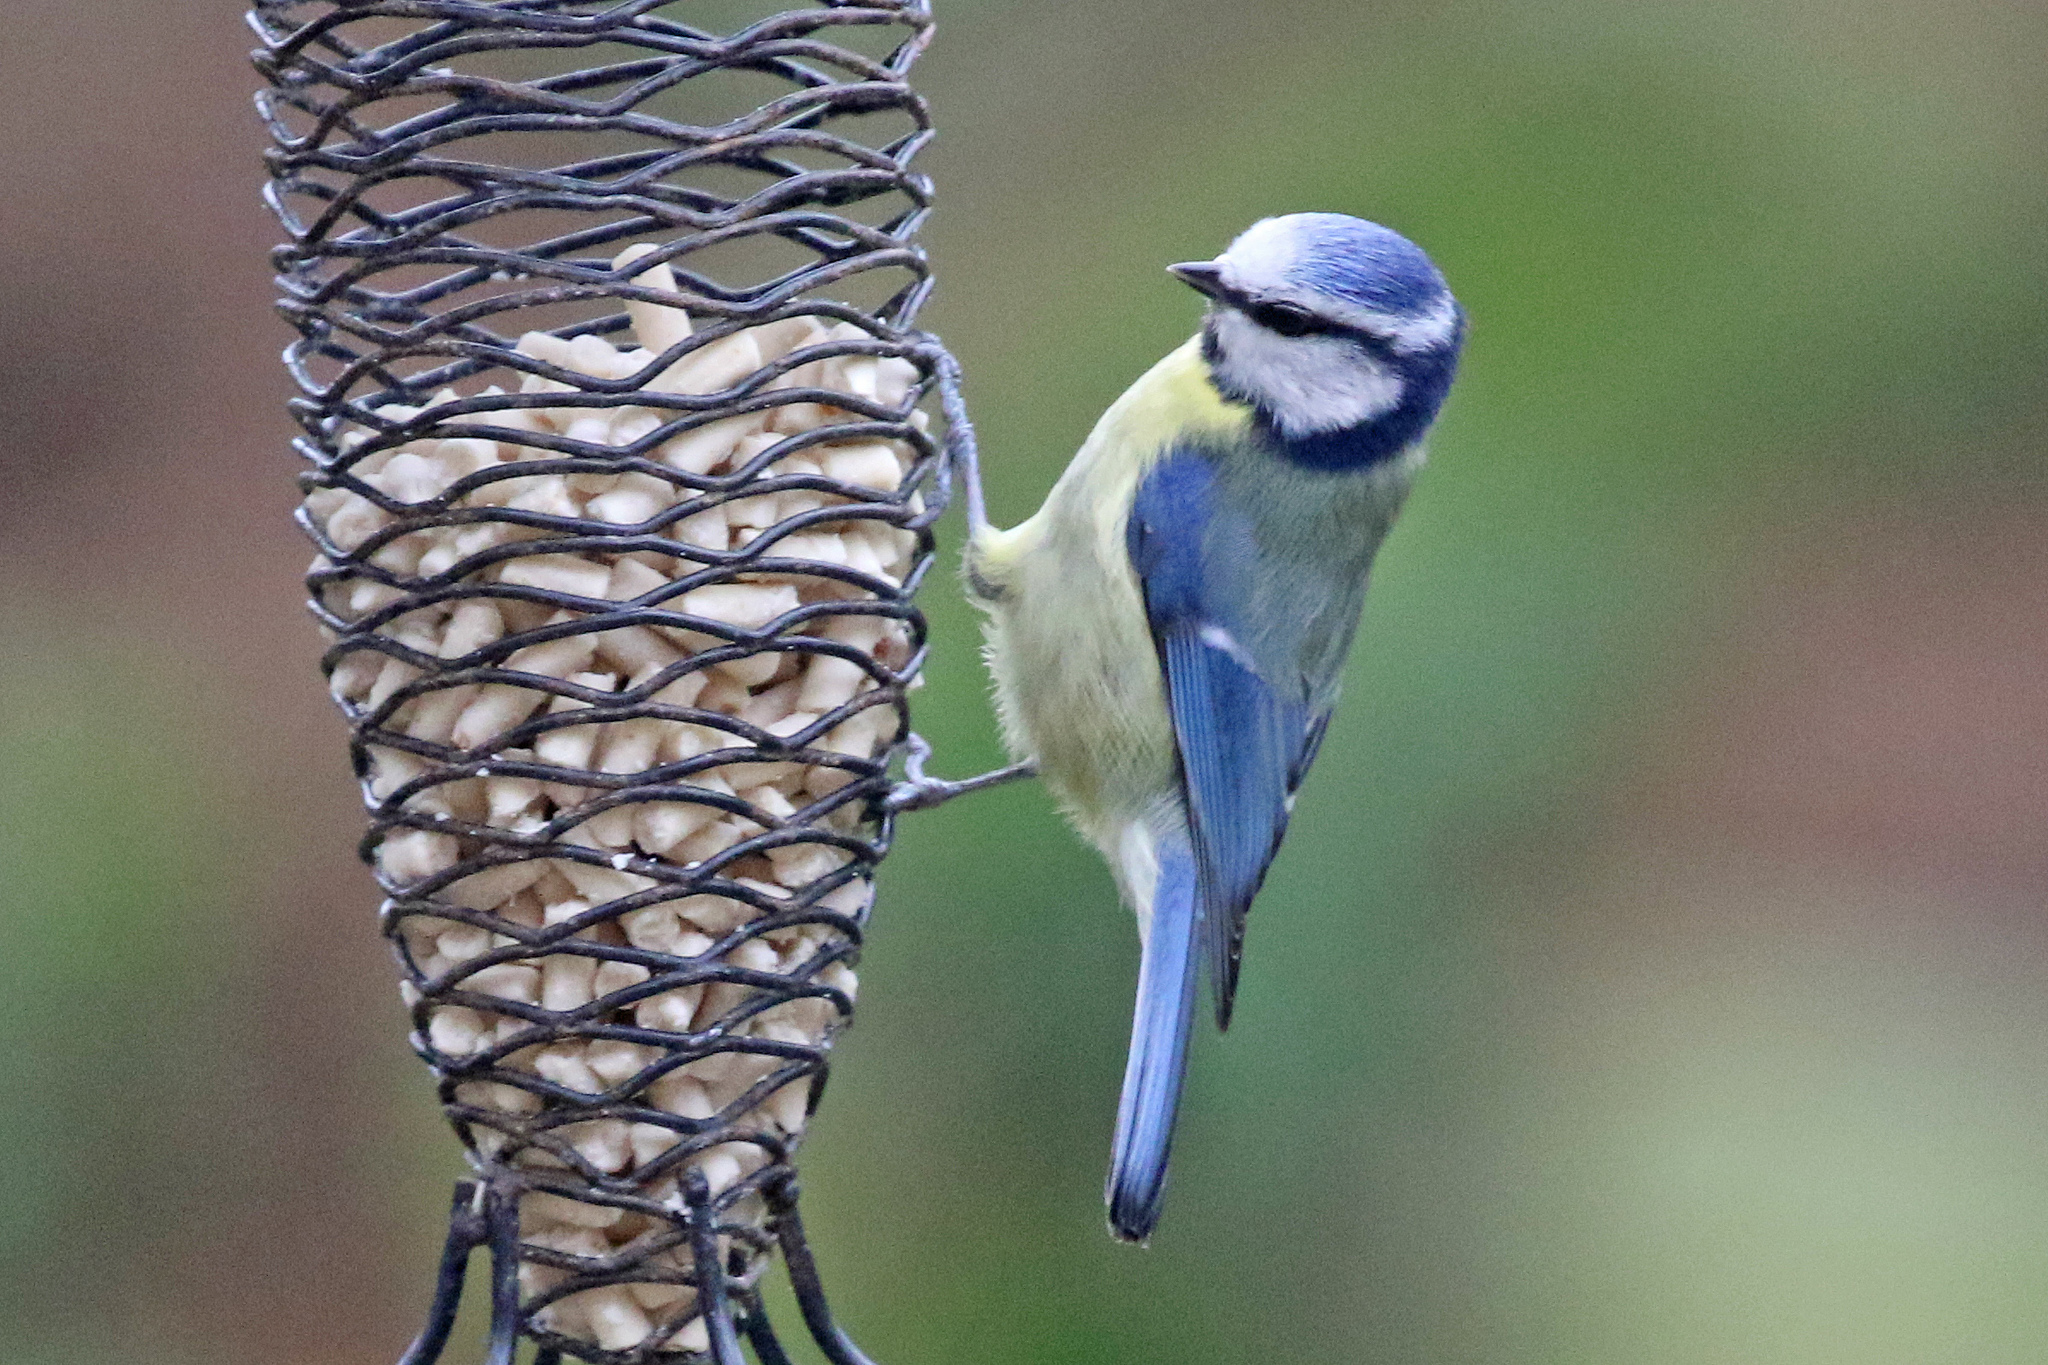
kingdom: Animalia
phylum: Chordata
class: Aves
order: Passeriformes
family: Paridae
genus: Cyanistes
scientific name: Cyanistes caeruleus
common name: Eurasian blue tit
